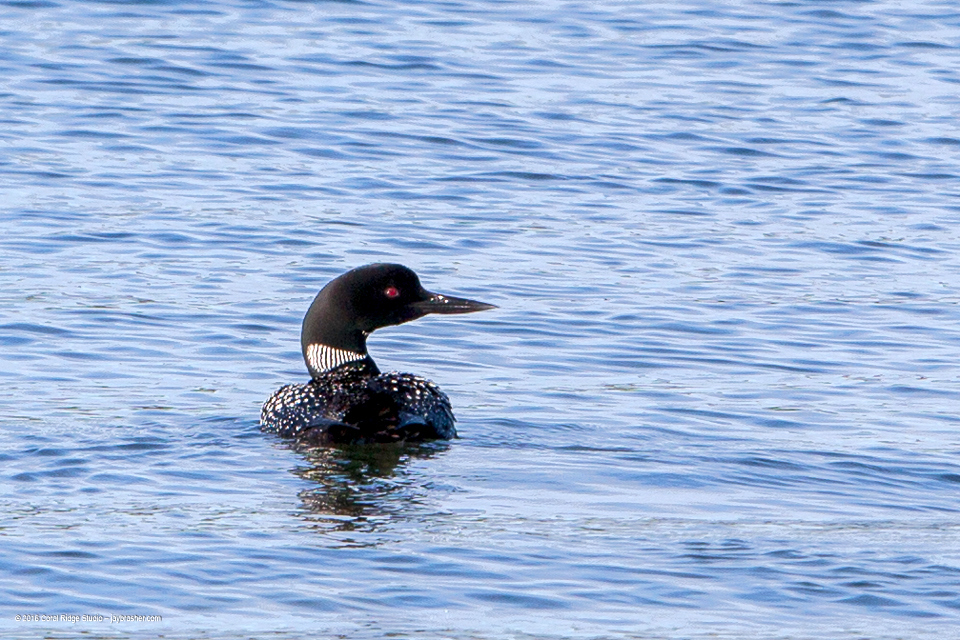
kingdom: Animalia
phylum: Chordata
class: Aves
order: Gaviiformes
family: Gaviidae
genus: Gavia
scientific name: Gavia immer
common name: Common loon
